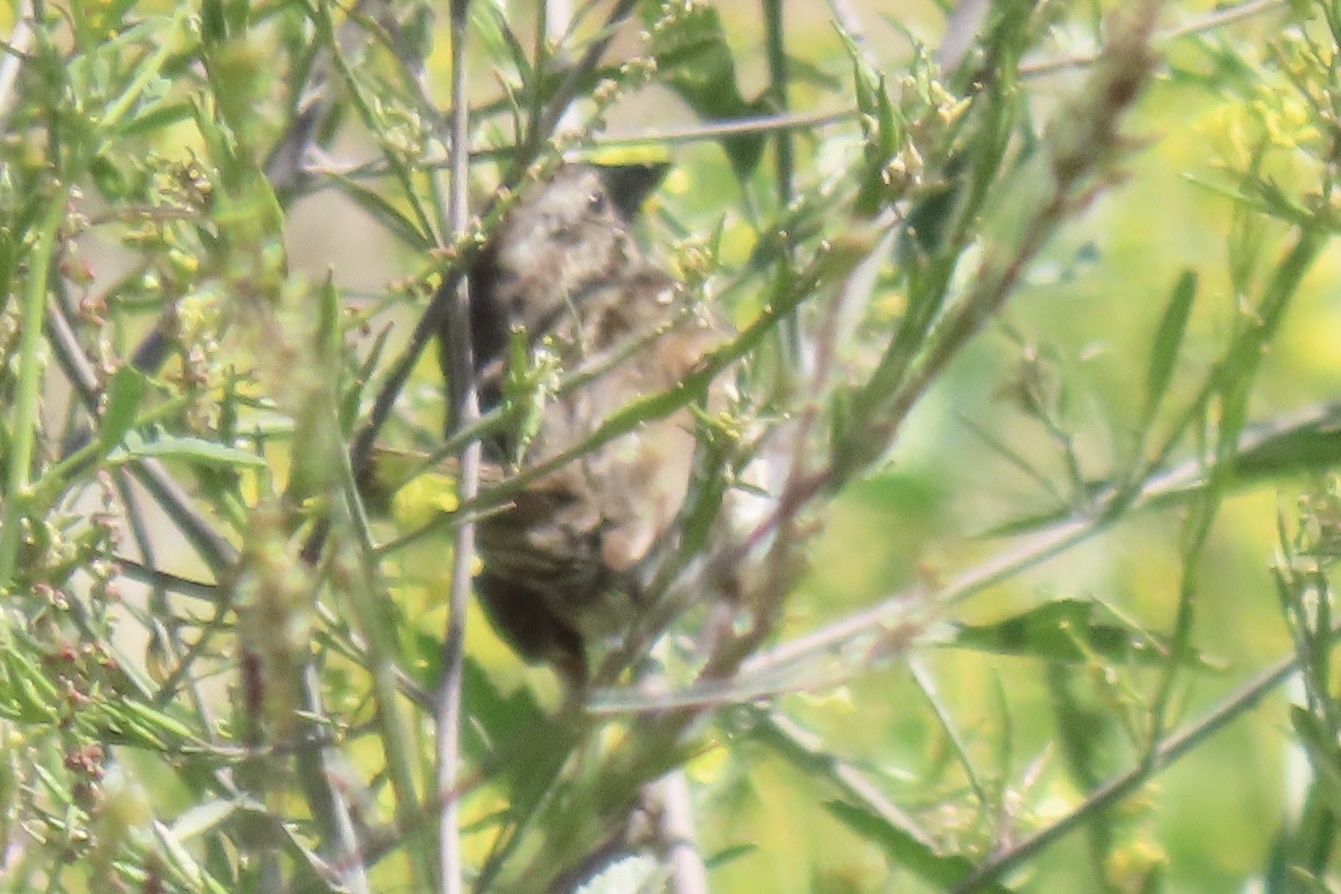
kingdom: Animalia
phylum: Chordata
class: Aves
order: Passeriformes
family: Passerellidae
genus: Melospiza
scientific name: Melospiza melodia
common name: Song sparrow
